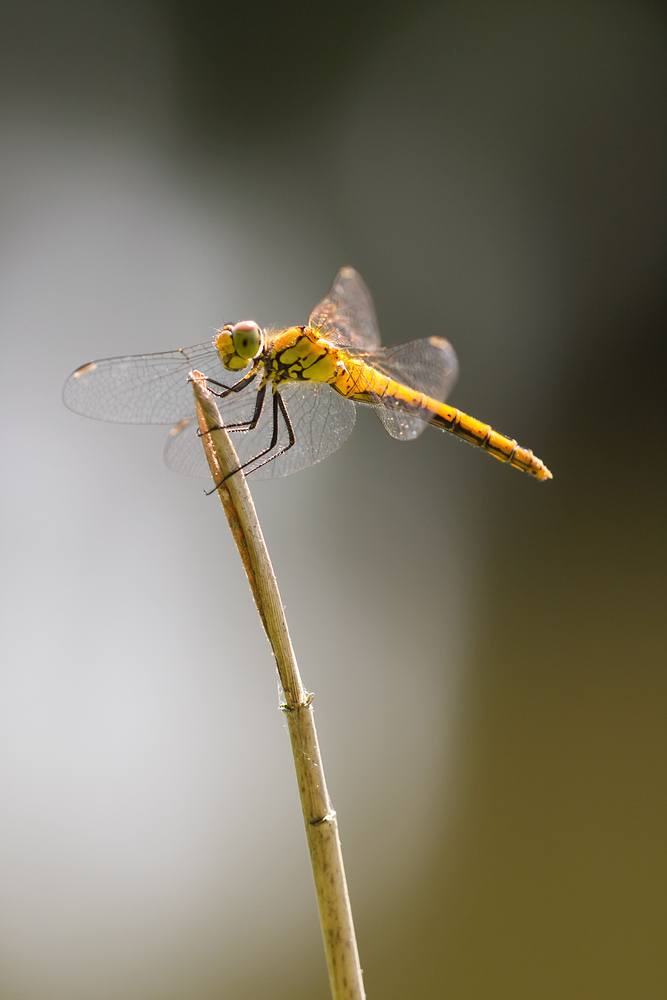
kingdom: Animalia
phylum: Arthropoda
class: Insecta
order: Odonata
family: Libellulidae
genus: Sympetrum
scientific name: Sympetrum sanguineum
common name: Ruddy darter
